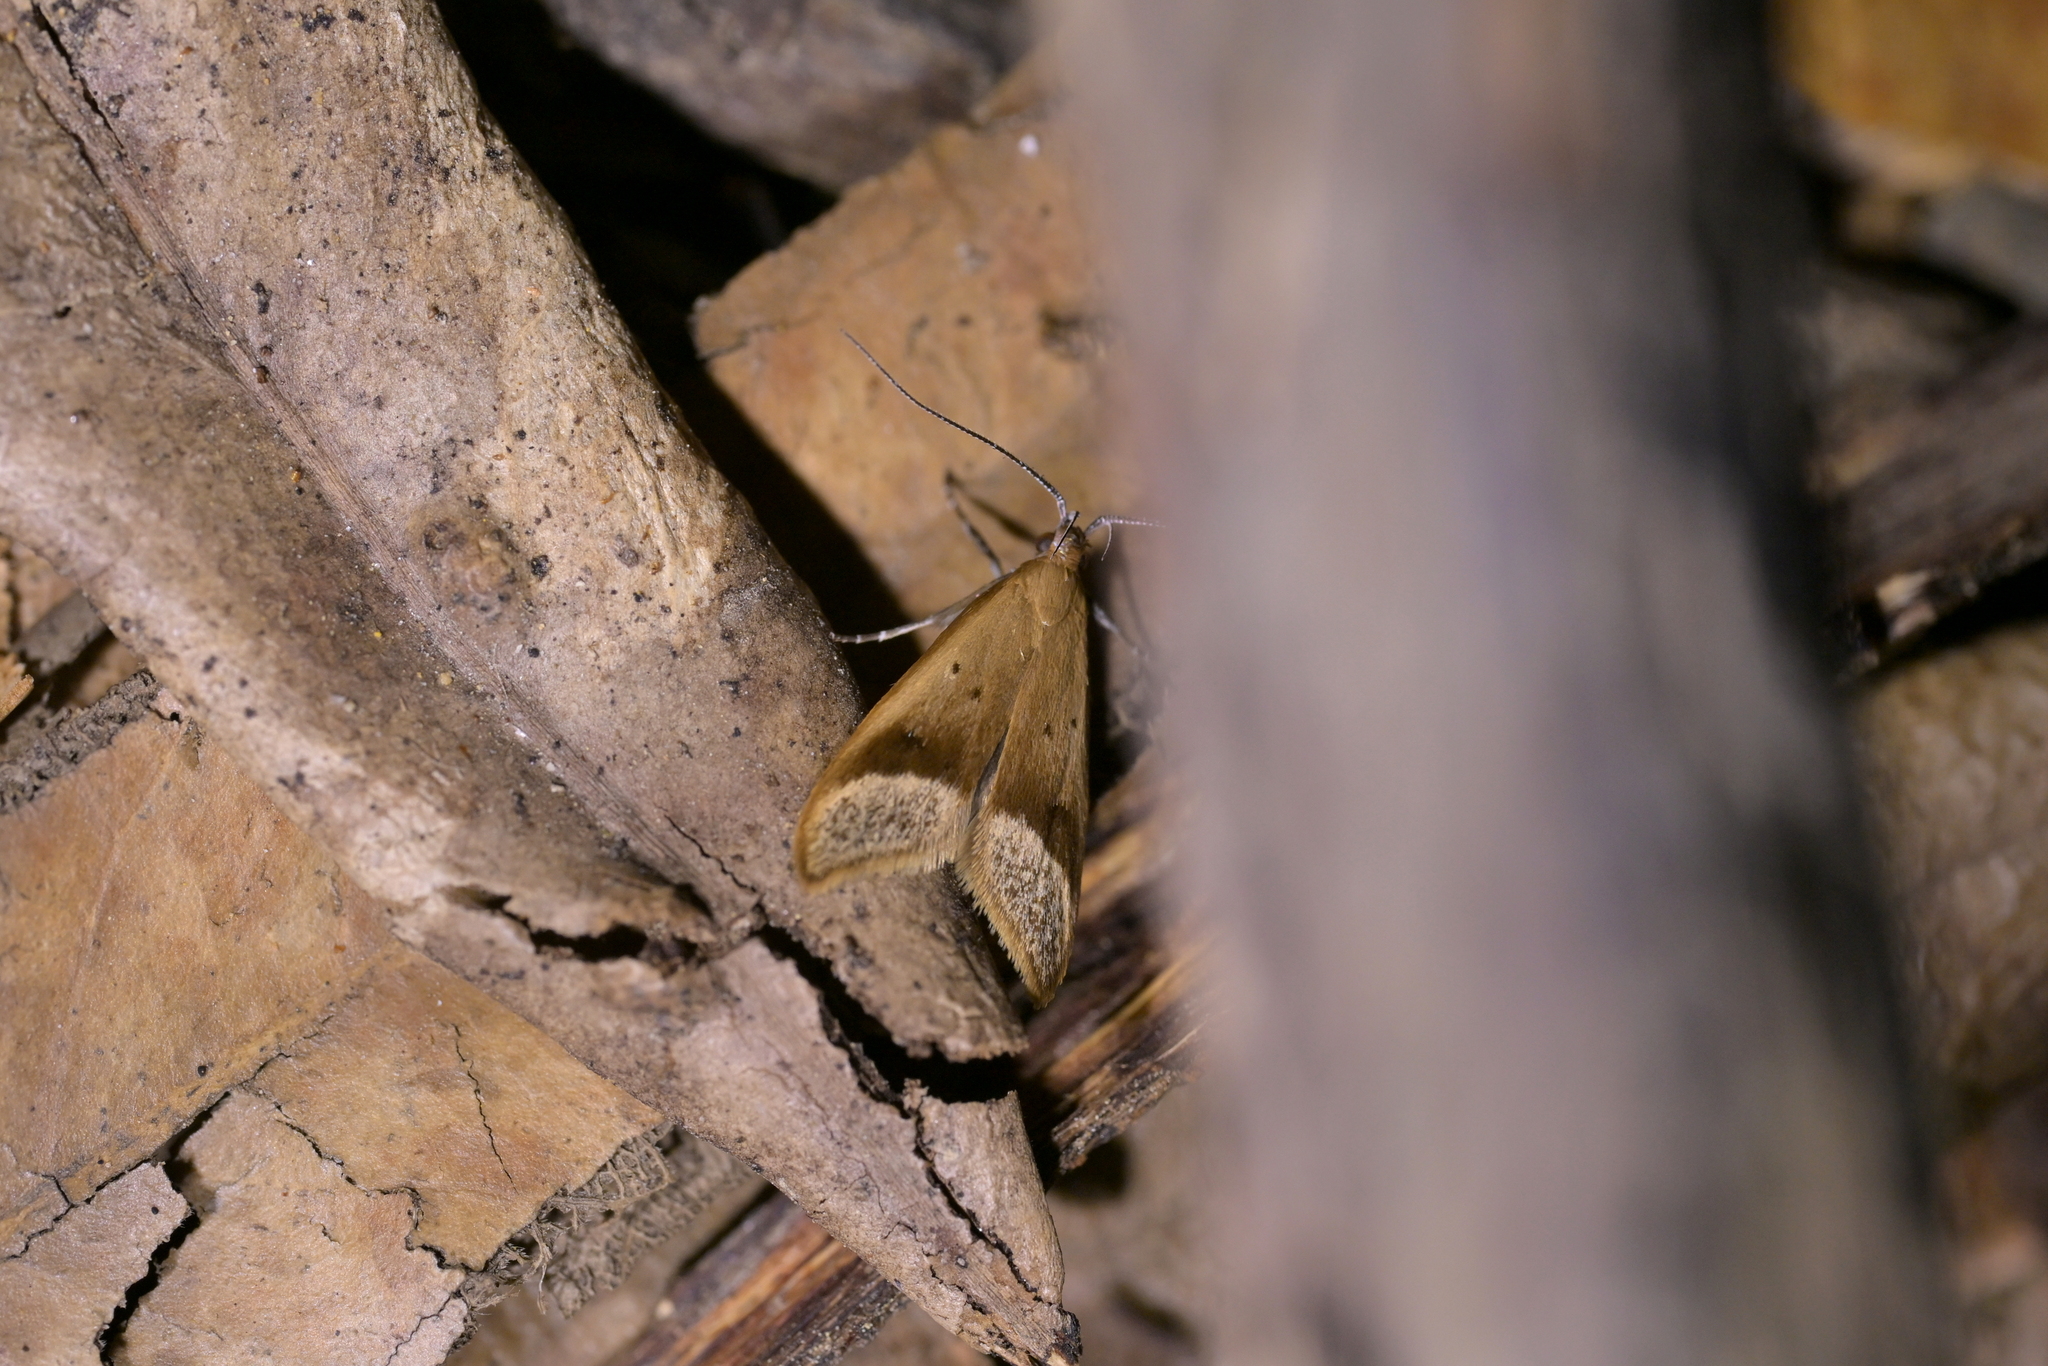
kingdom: Animalia
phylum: Arthropoda
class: Insecta
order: Lepidoptera
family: Oecophoridae
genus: Gymnobathra
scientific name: Gymnobathra hyetodes
